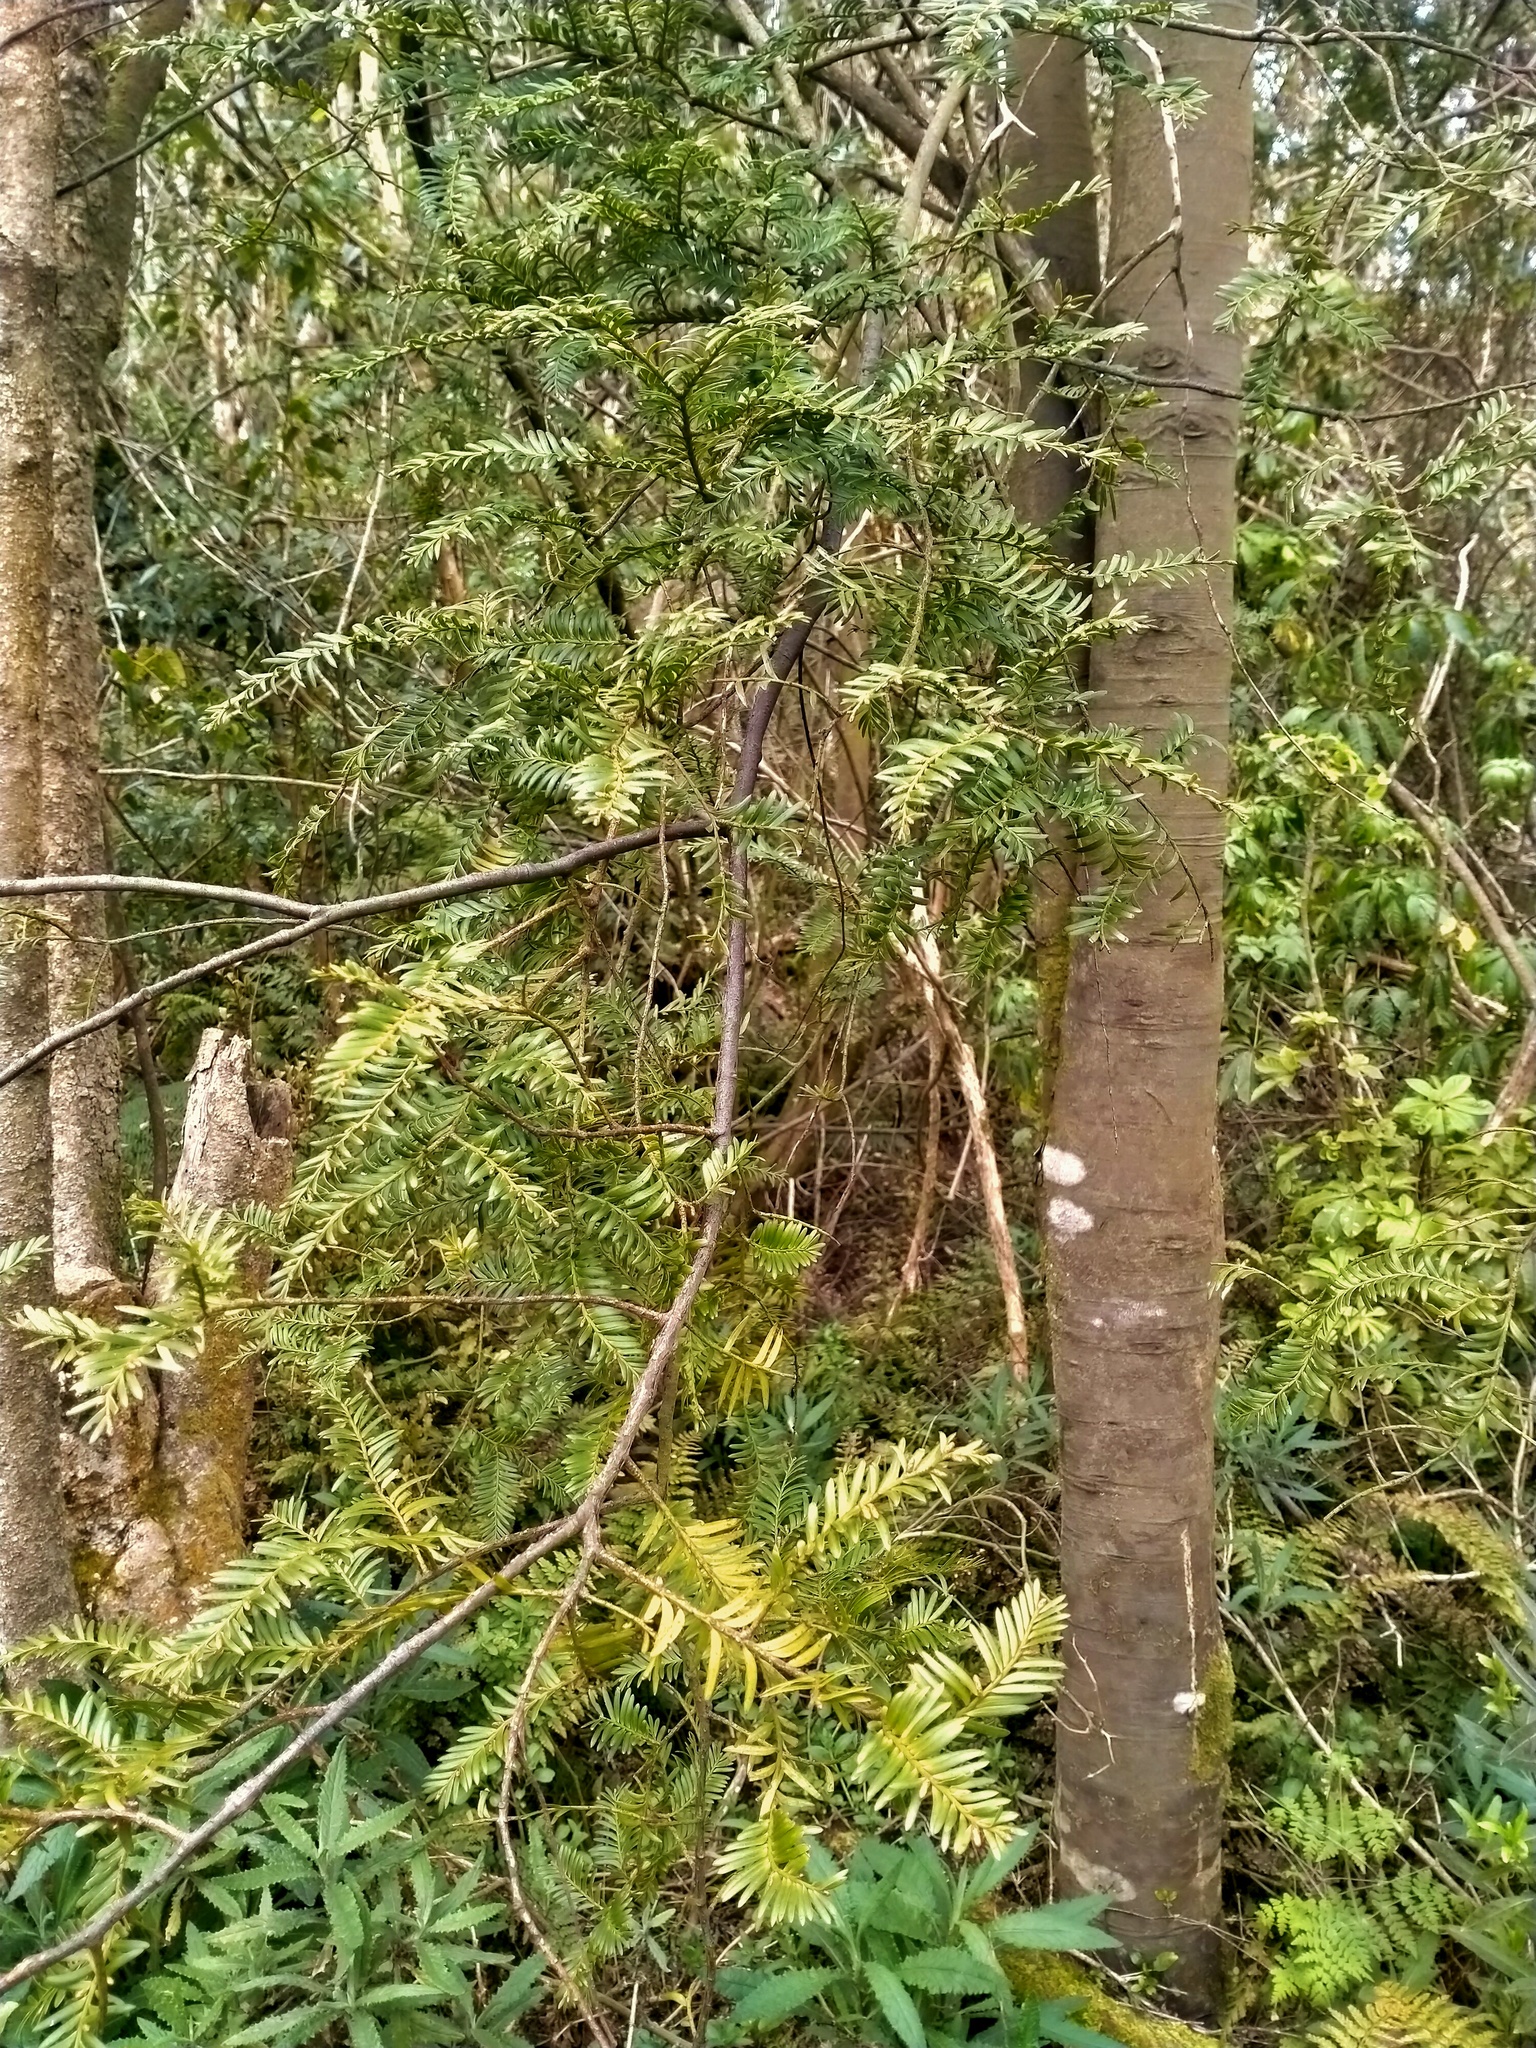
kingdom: Plantae
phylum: Tracheophyta
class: Pinopsida
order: Pinales
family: Podocarpaceae
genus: Prumnopitys
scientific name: Prumnopitys taxifolia
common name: Matai
